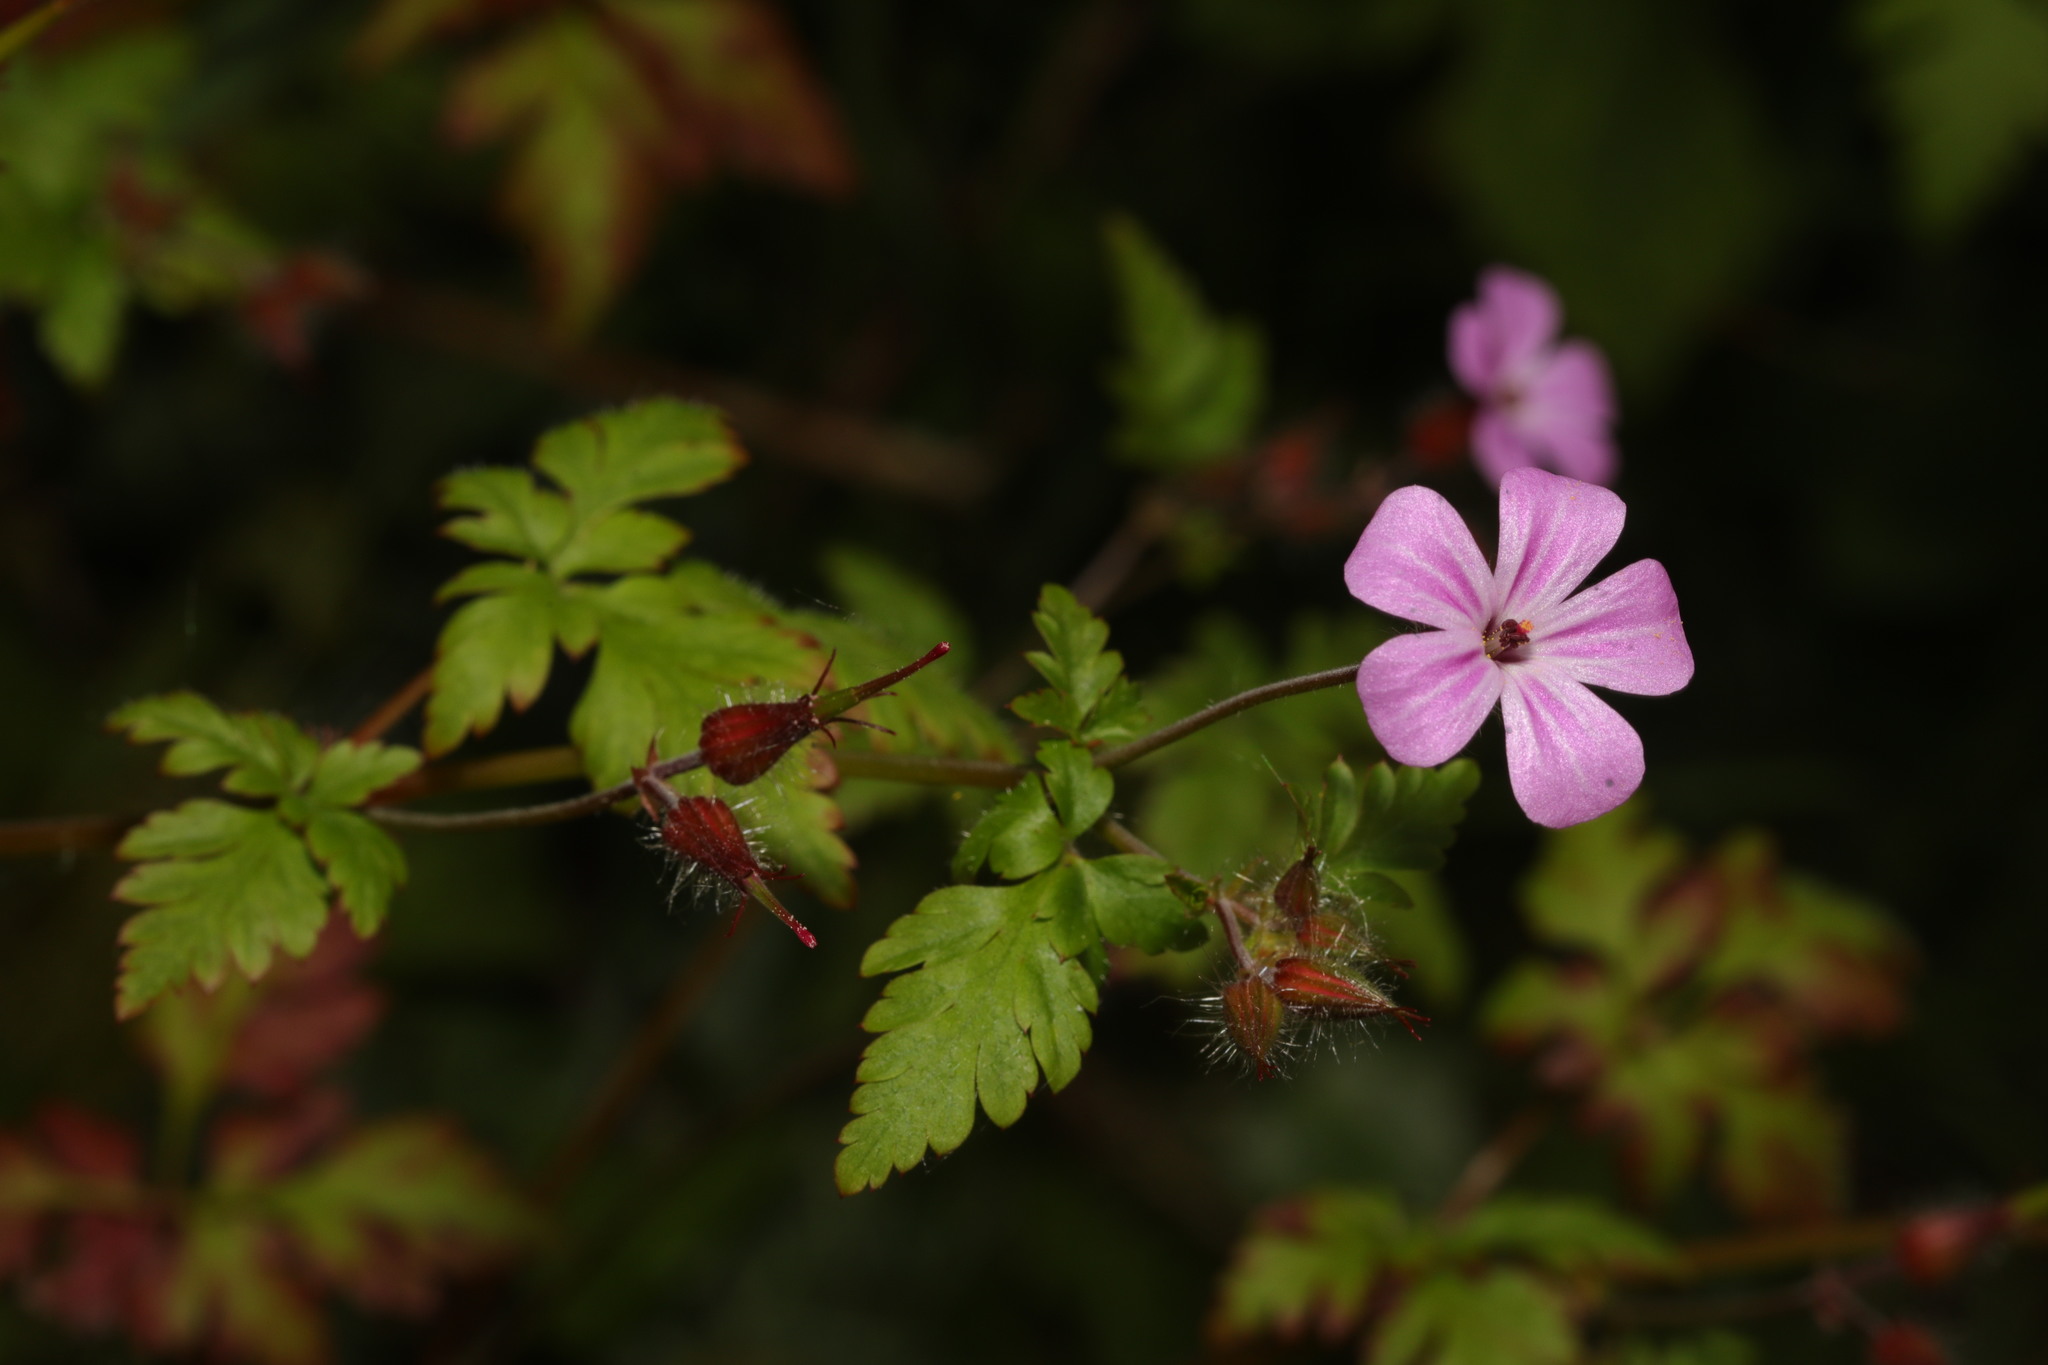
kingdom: Plantae
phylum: Tracheophyta
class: Magnoliopsida
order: Geraniales
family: Geraniaceae
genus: Geranium
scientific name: Geranium robertianum
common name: Herb-robert
